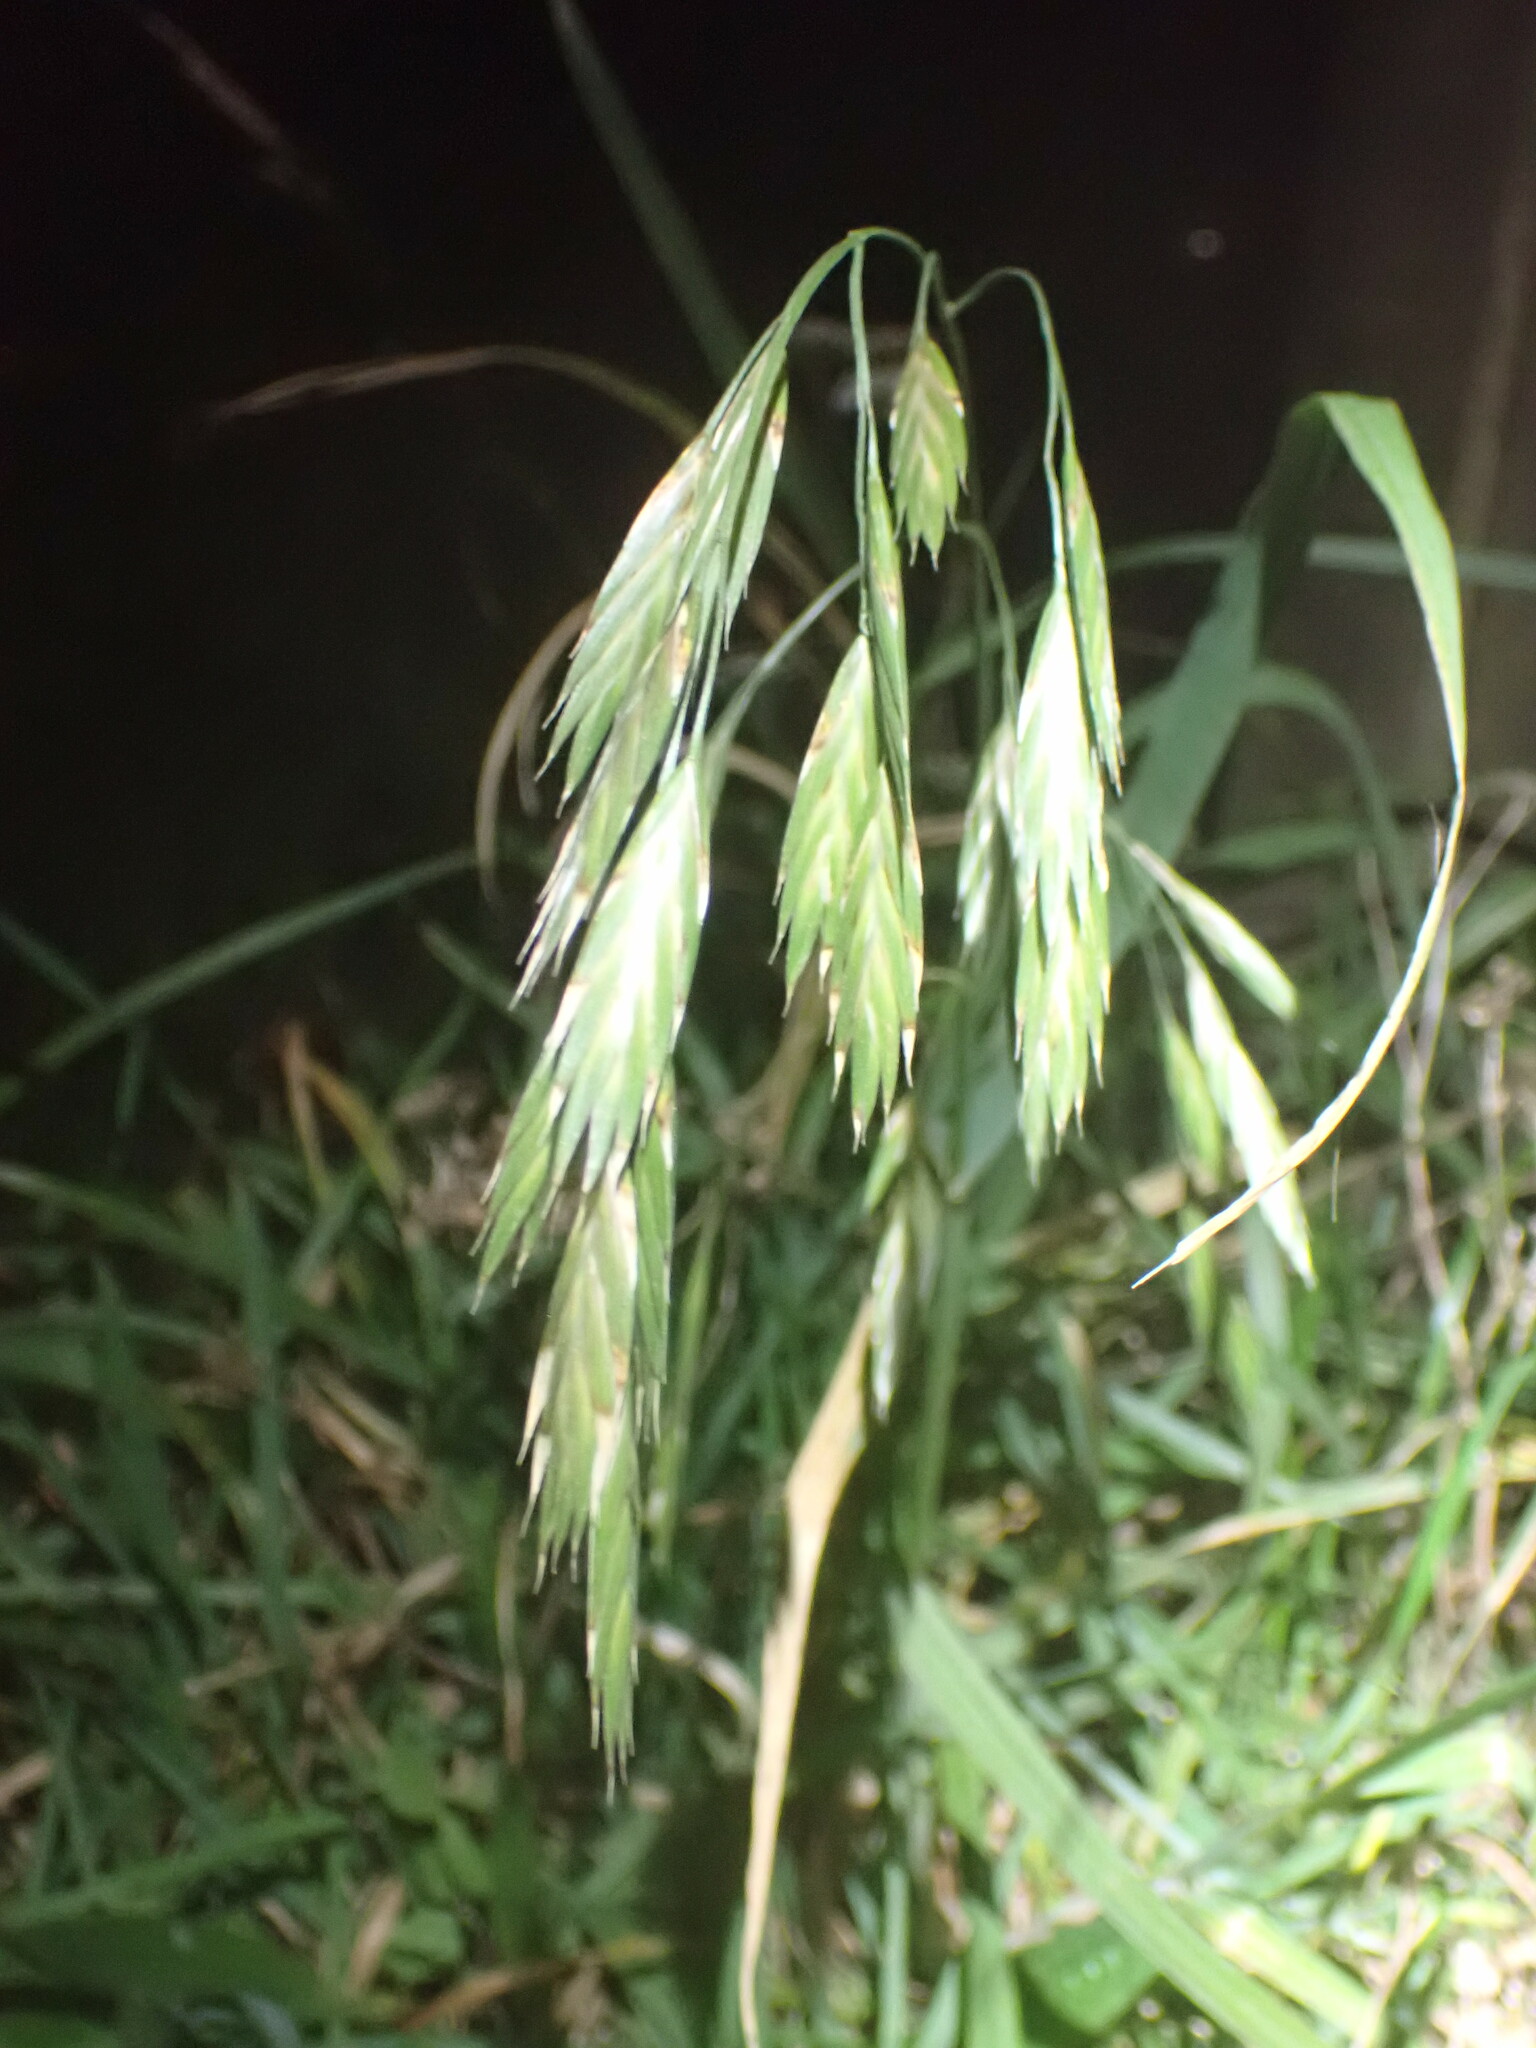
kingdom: Plantae
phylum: Tracheophyta
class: Liliopsida
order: Poales
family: Poaceae
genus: Bromus
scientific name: Bromus catharticus
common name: Rescuegrass
